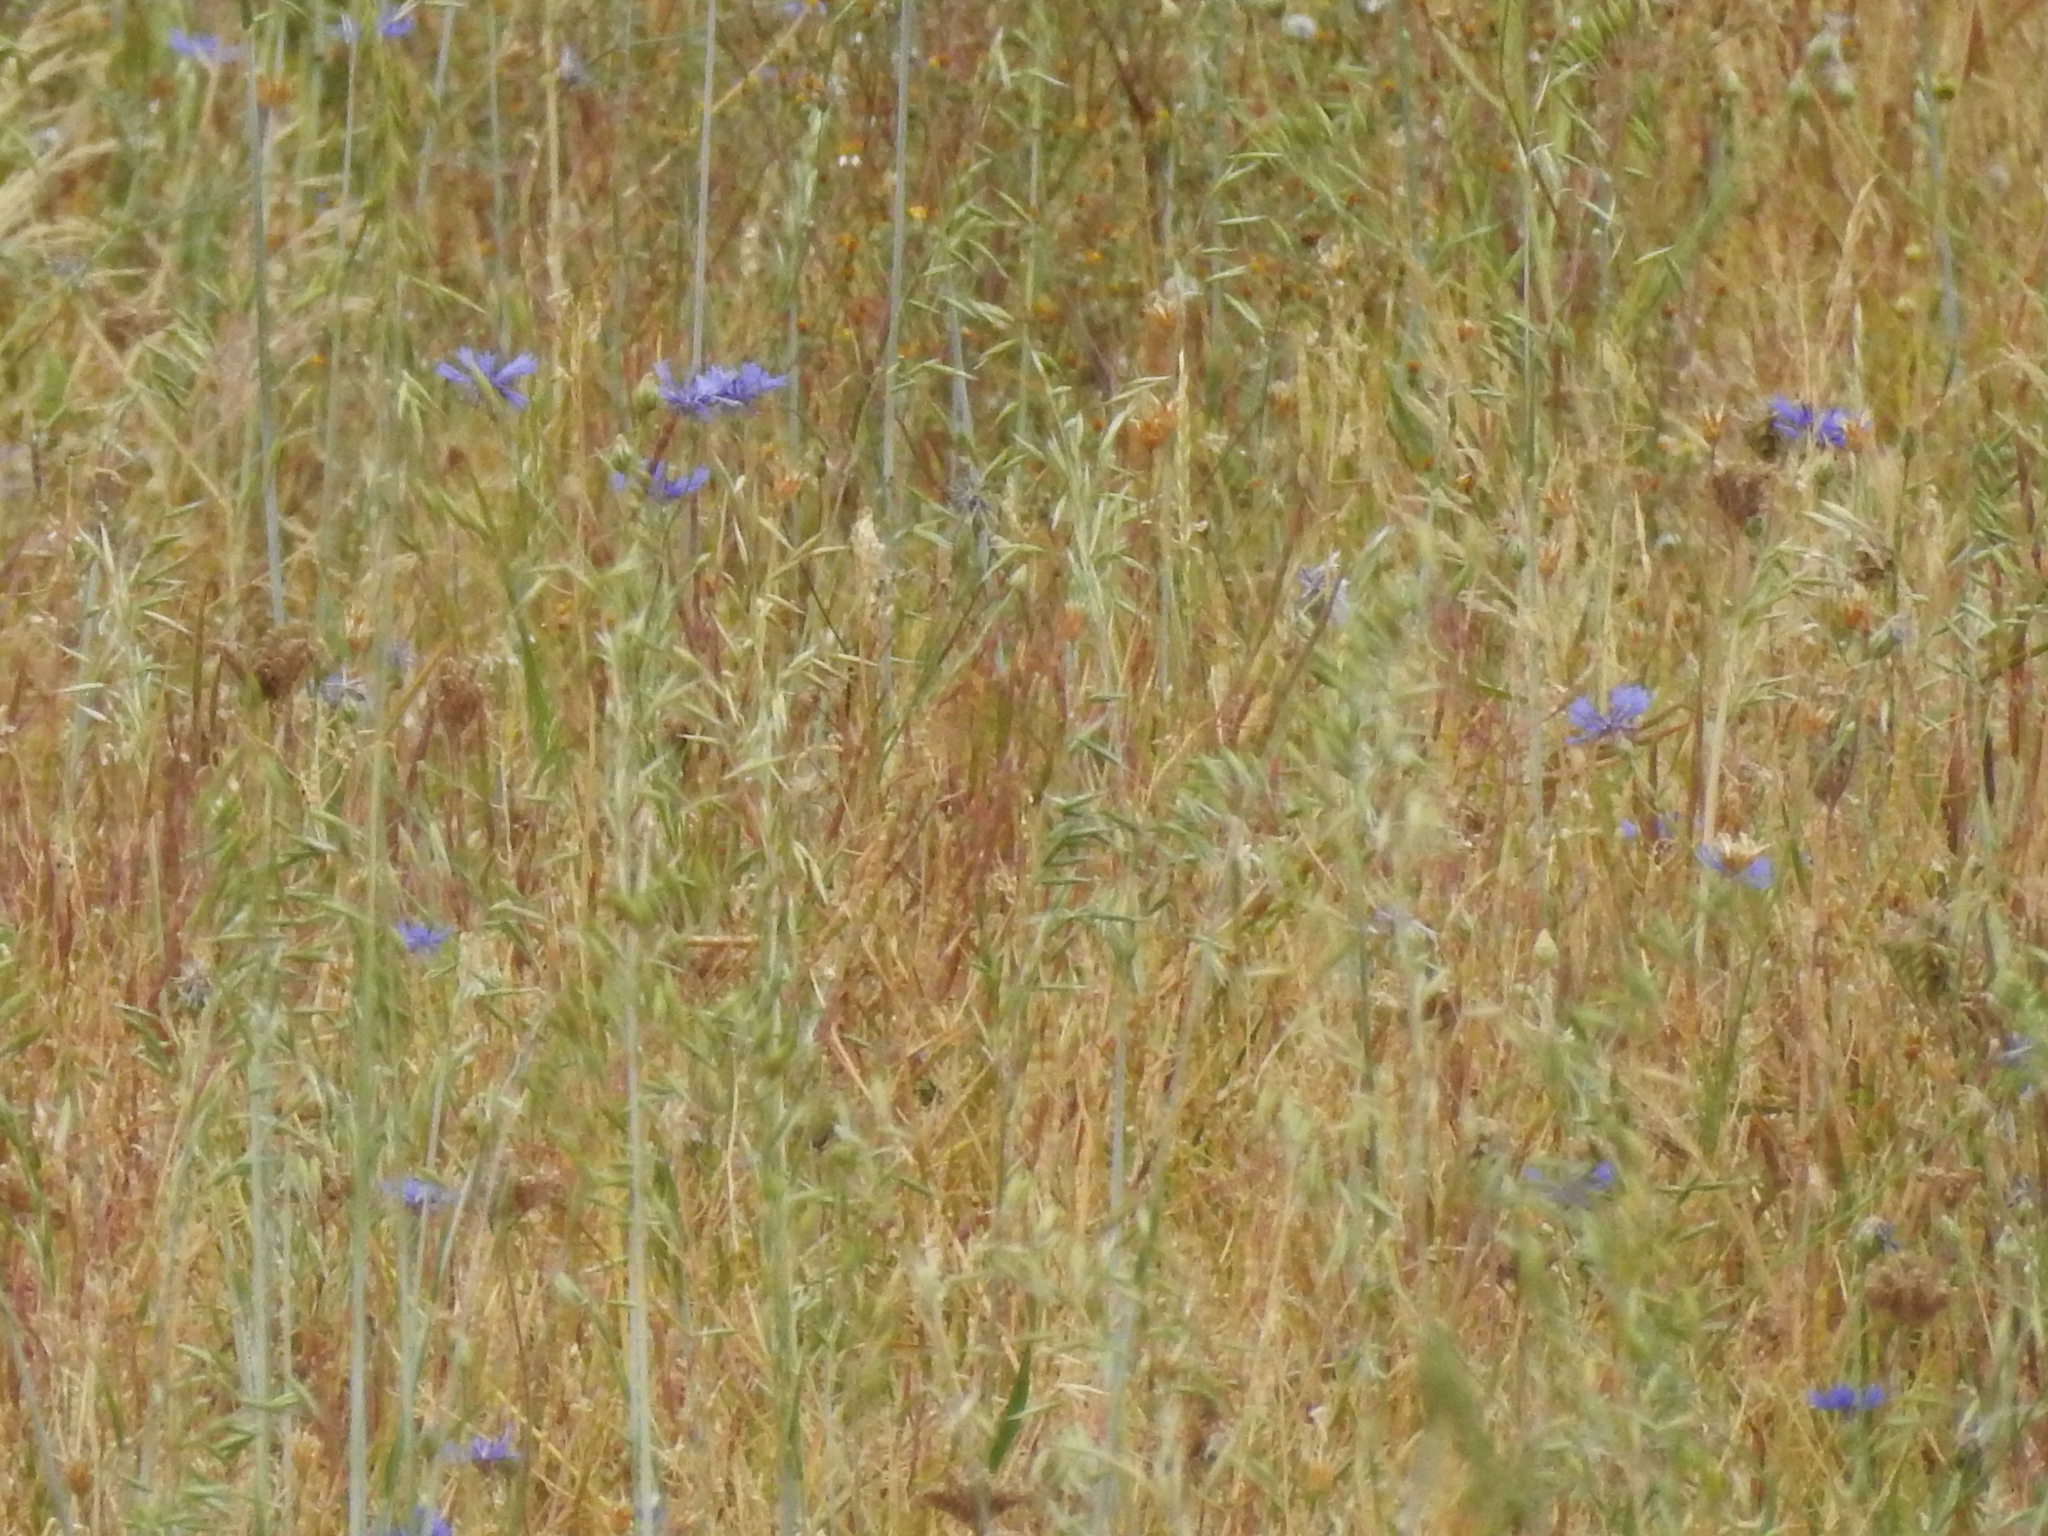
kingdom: Plantae
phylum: Tracheophyta
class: Magnoliopsida
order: Asterales
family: Asteraceae
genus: Centaurea
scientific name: Centaurea cyanus
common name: Cornflower
